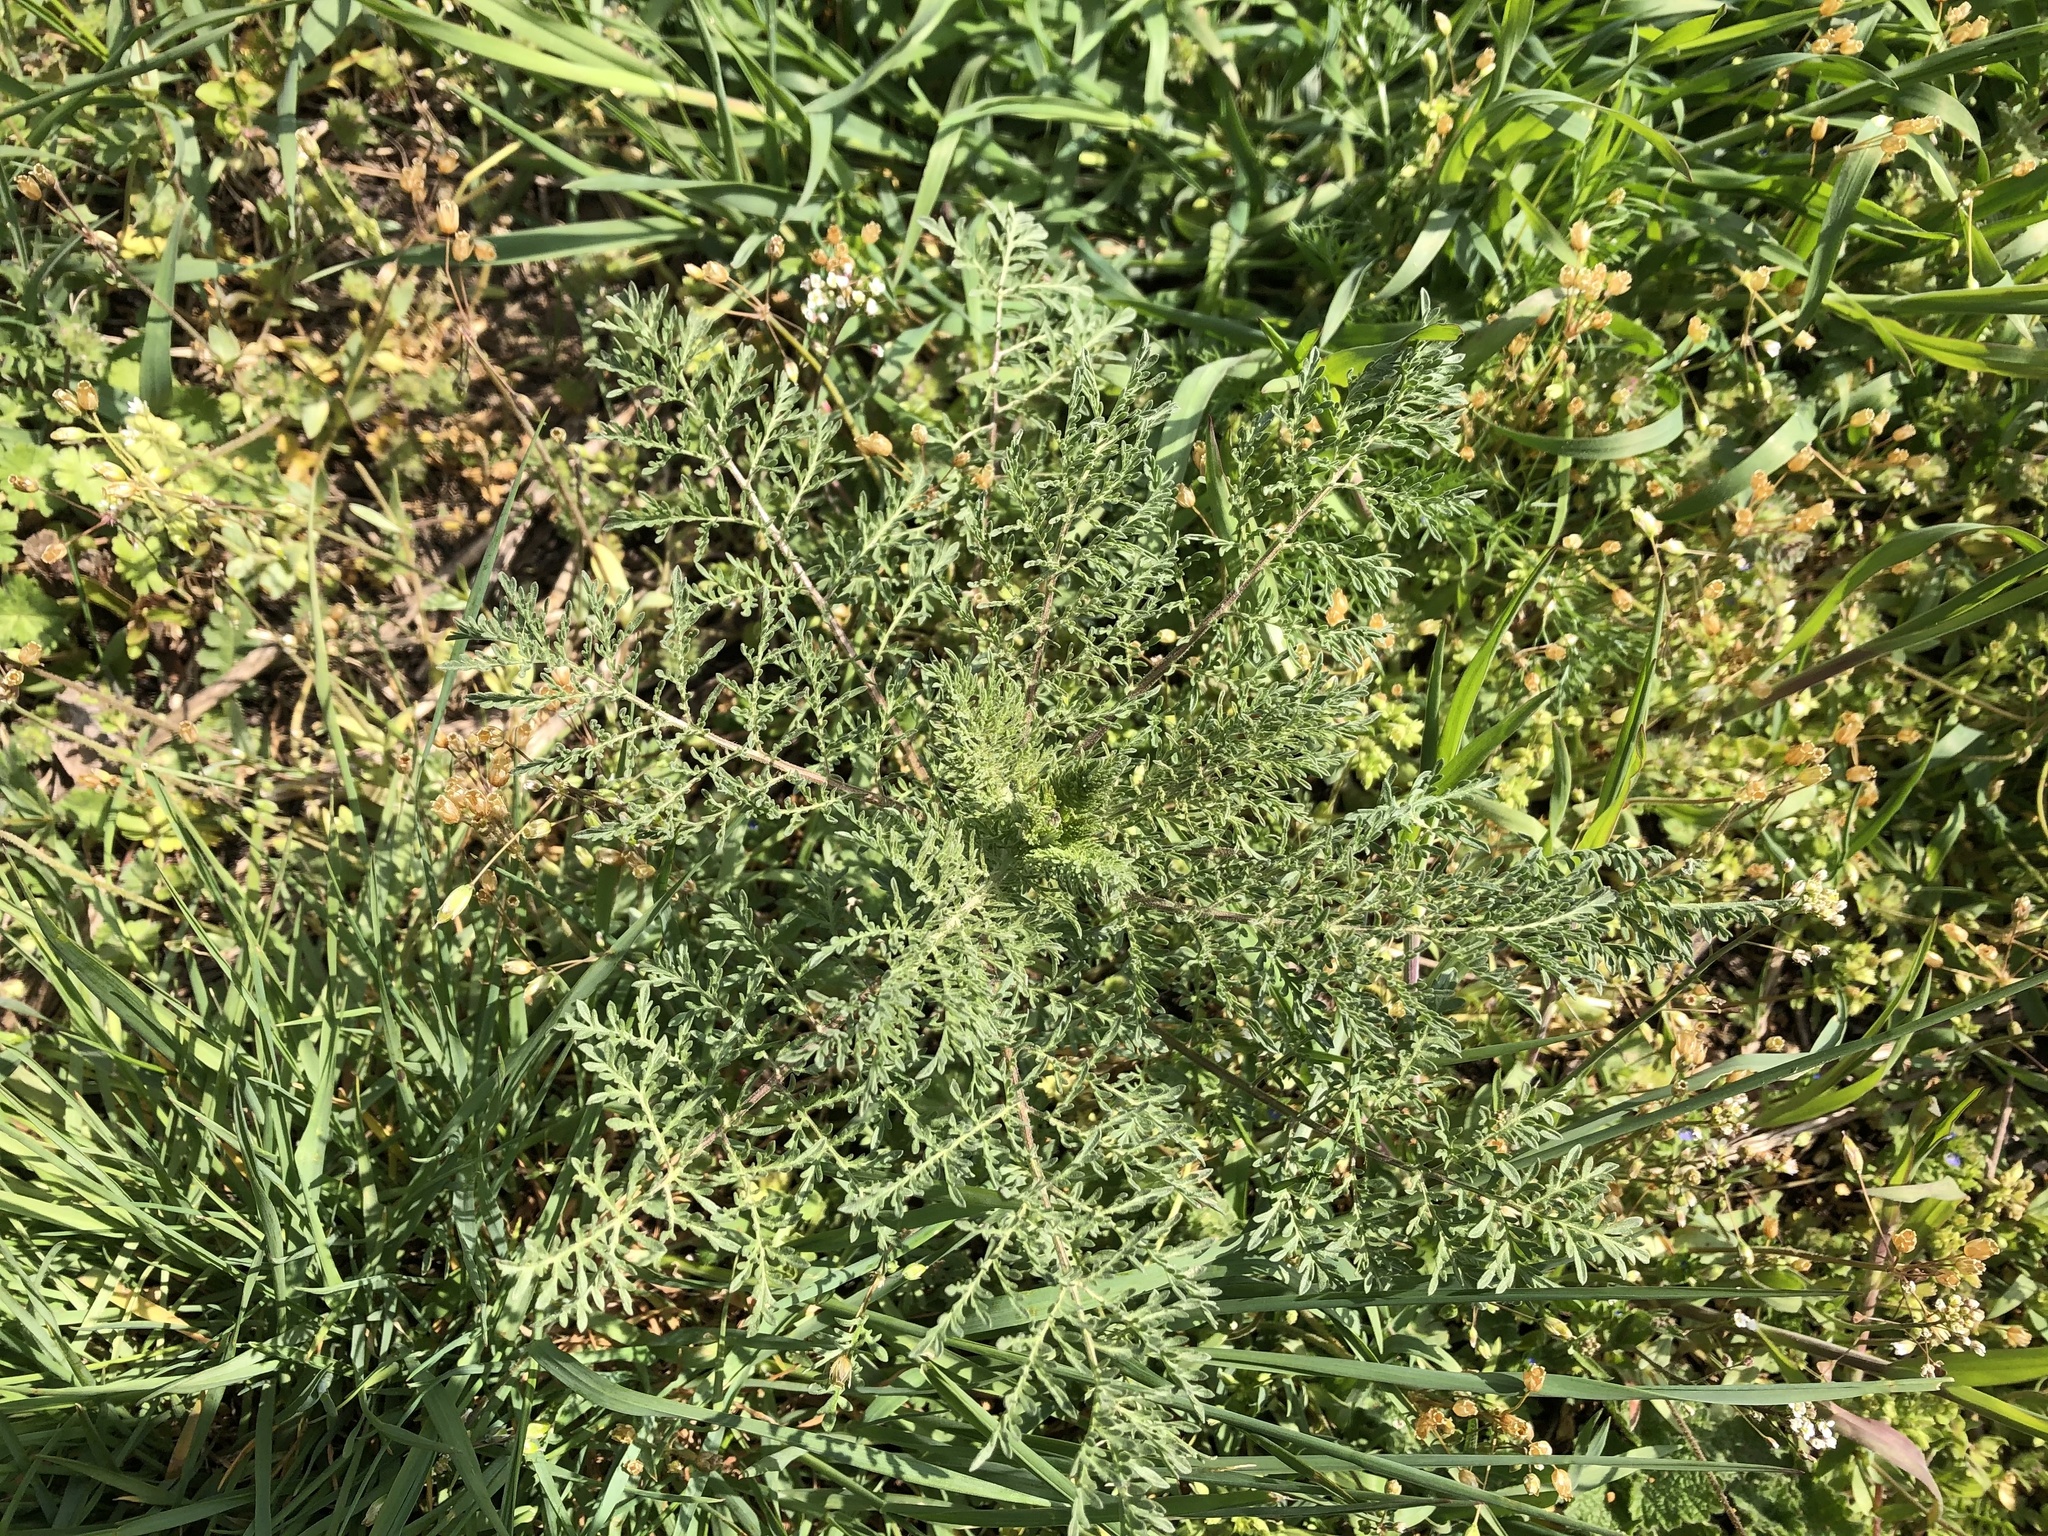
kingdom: Plantae
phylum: Tracheophyta
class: Magnoliopsida
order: Brassicales
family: Brassicaceae
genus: Descurainia
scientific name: Descurainia sophia
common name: Flixweed
